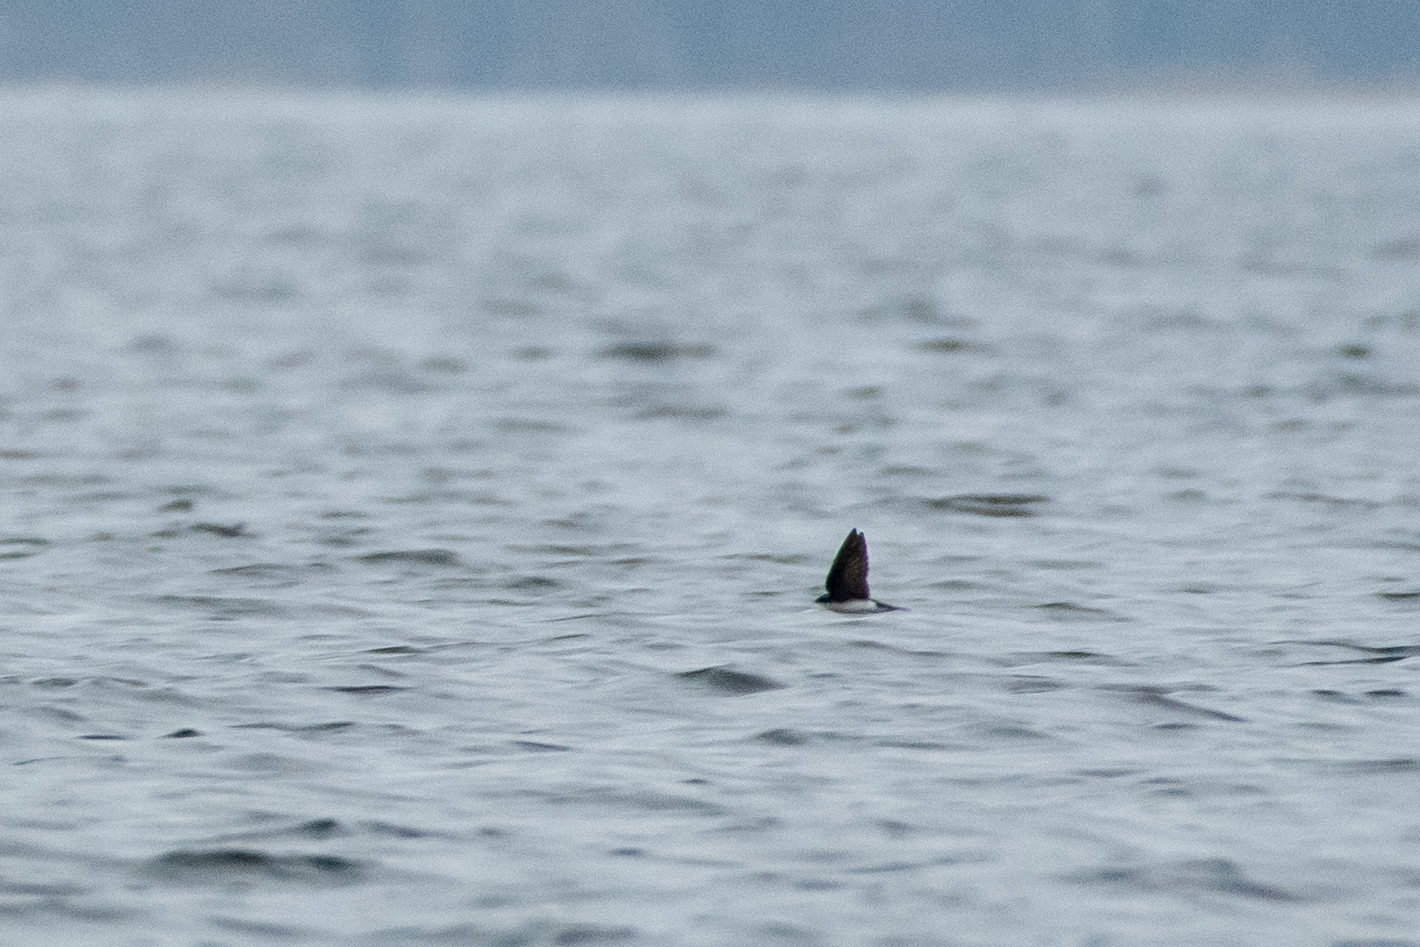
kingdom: Animalia
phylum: Chordata
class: Aves
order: Passeriformes
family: Hirundinidae
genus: Tachycineta
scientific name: Tachycineta bicolor
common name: Tree swallow
